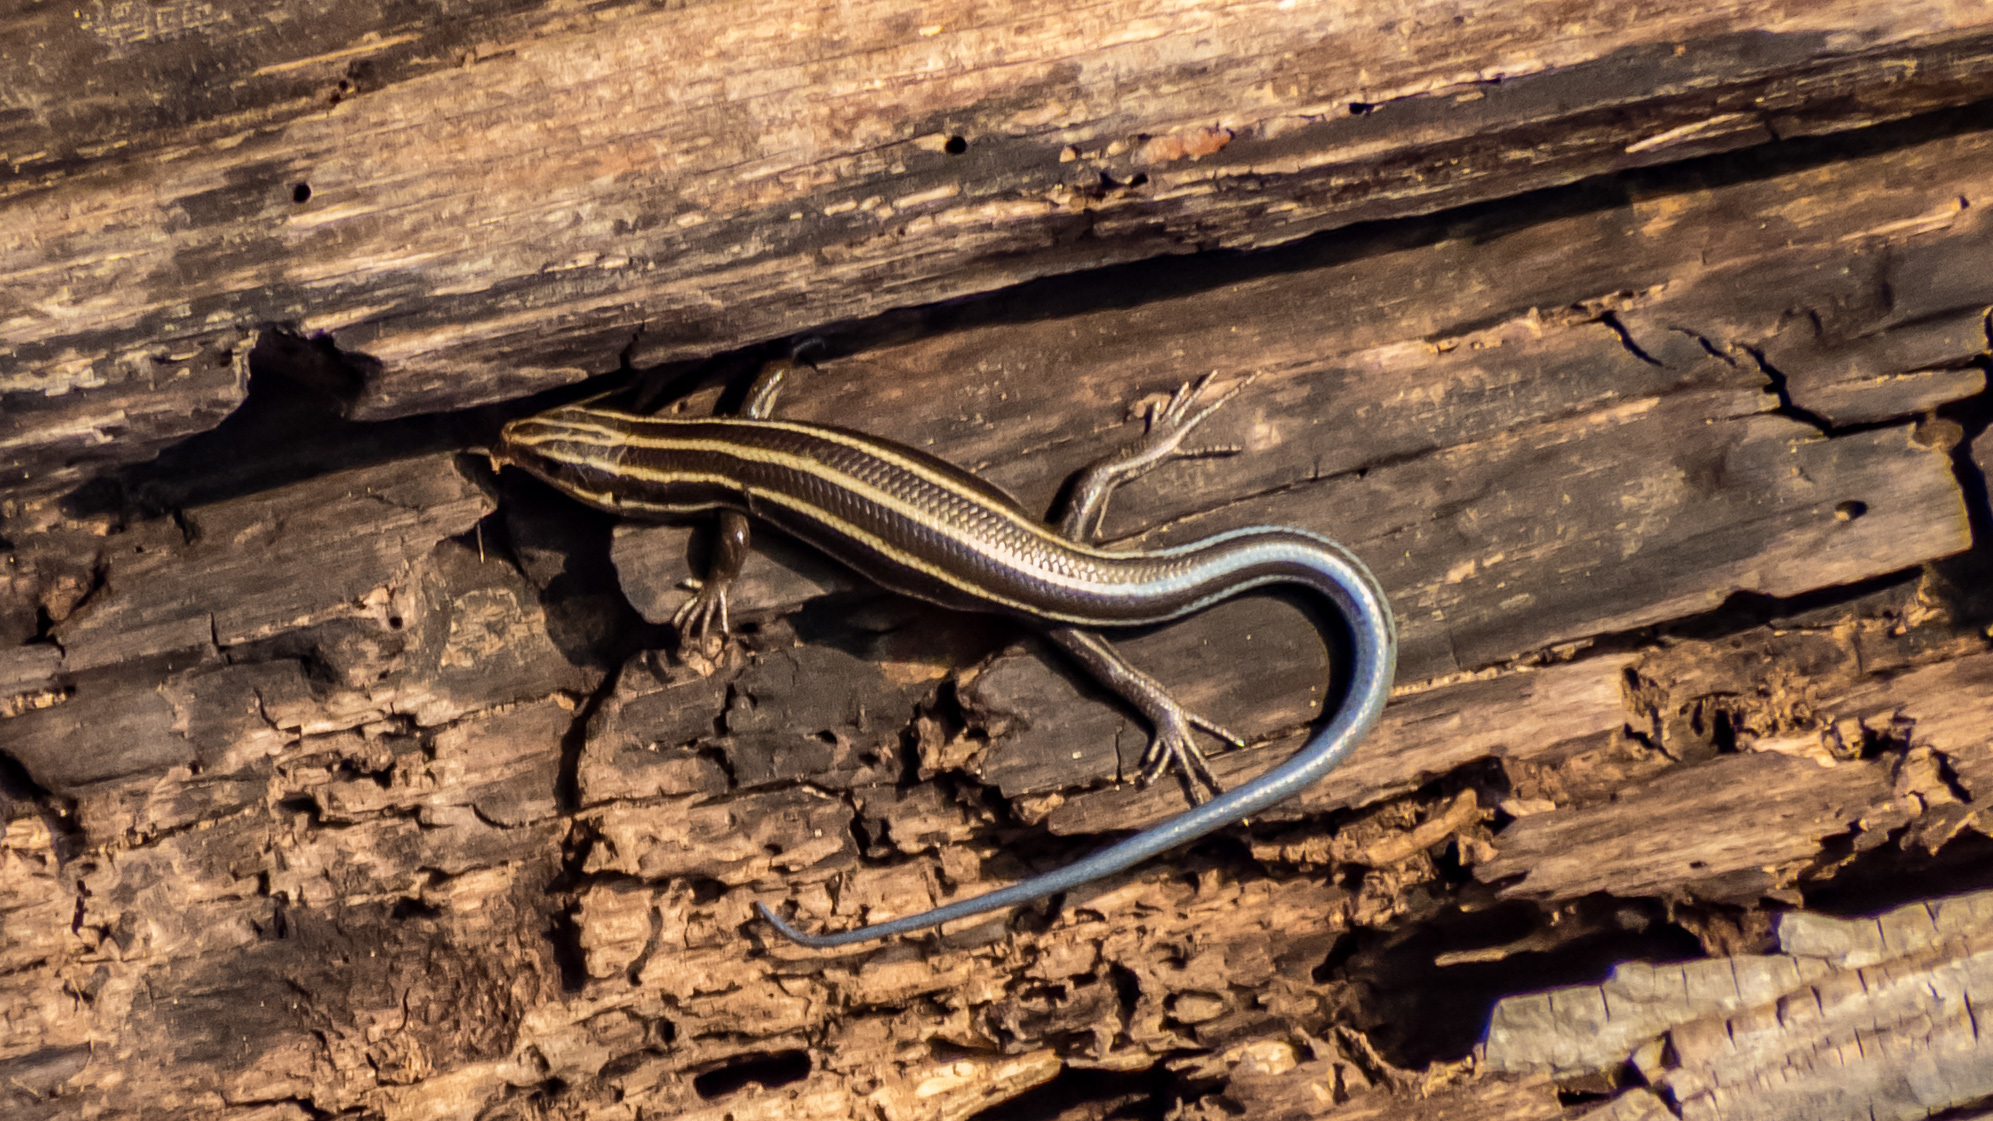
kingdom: Animalia
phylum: Chordata
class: Squamata
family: Scincidae
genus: Plestiodon
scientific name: Plestiodon fasciatus
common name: Five-lined skink
